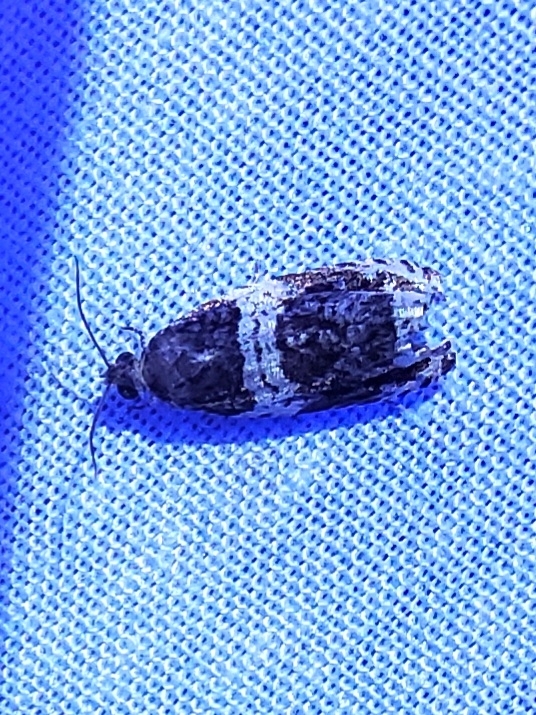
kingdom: Animalia
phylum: Arthropoda
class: Insecta
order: Lepidoptera
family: Tortricidae
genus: Olethreutes
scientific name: Olethreutes fasciatana
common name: Banded olethreutes moth
